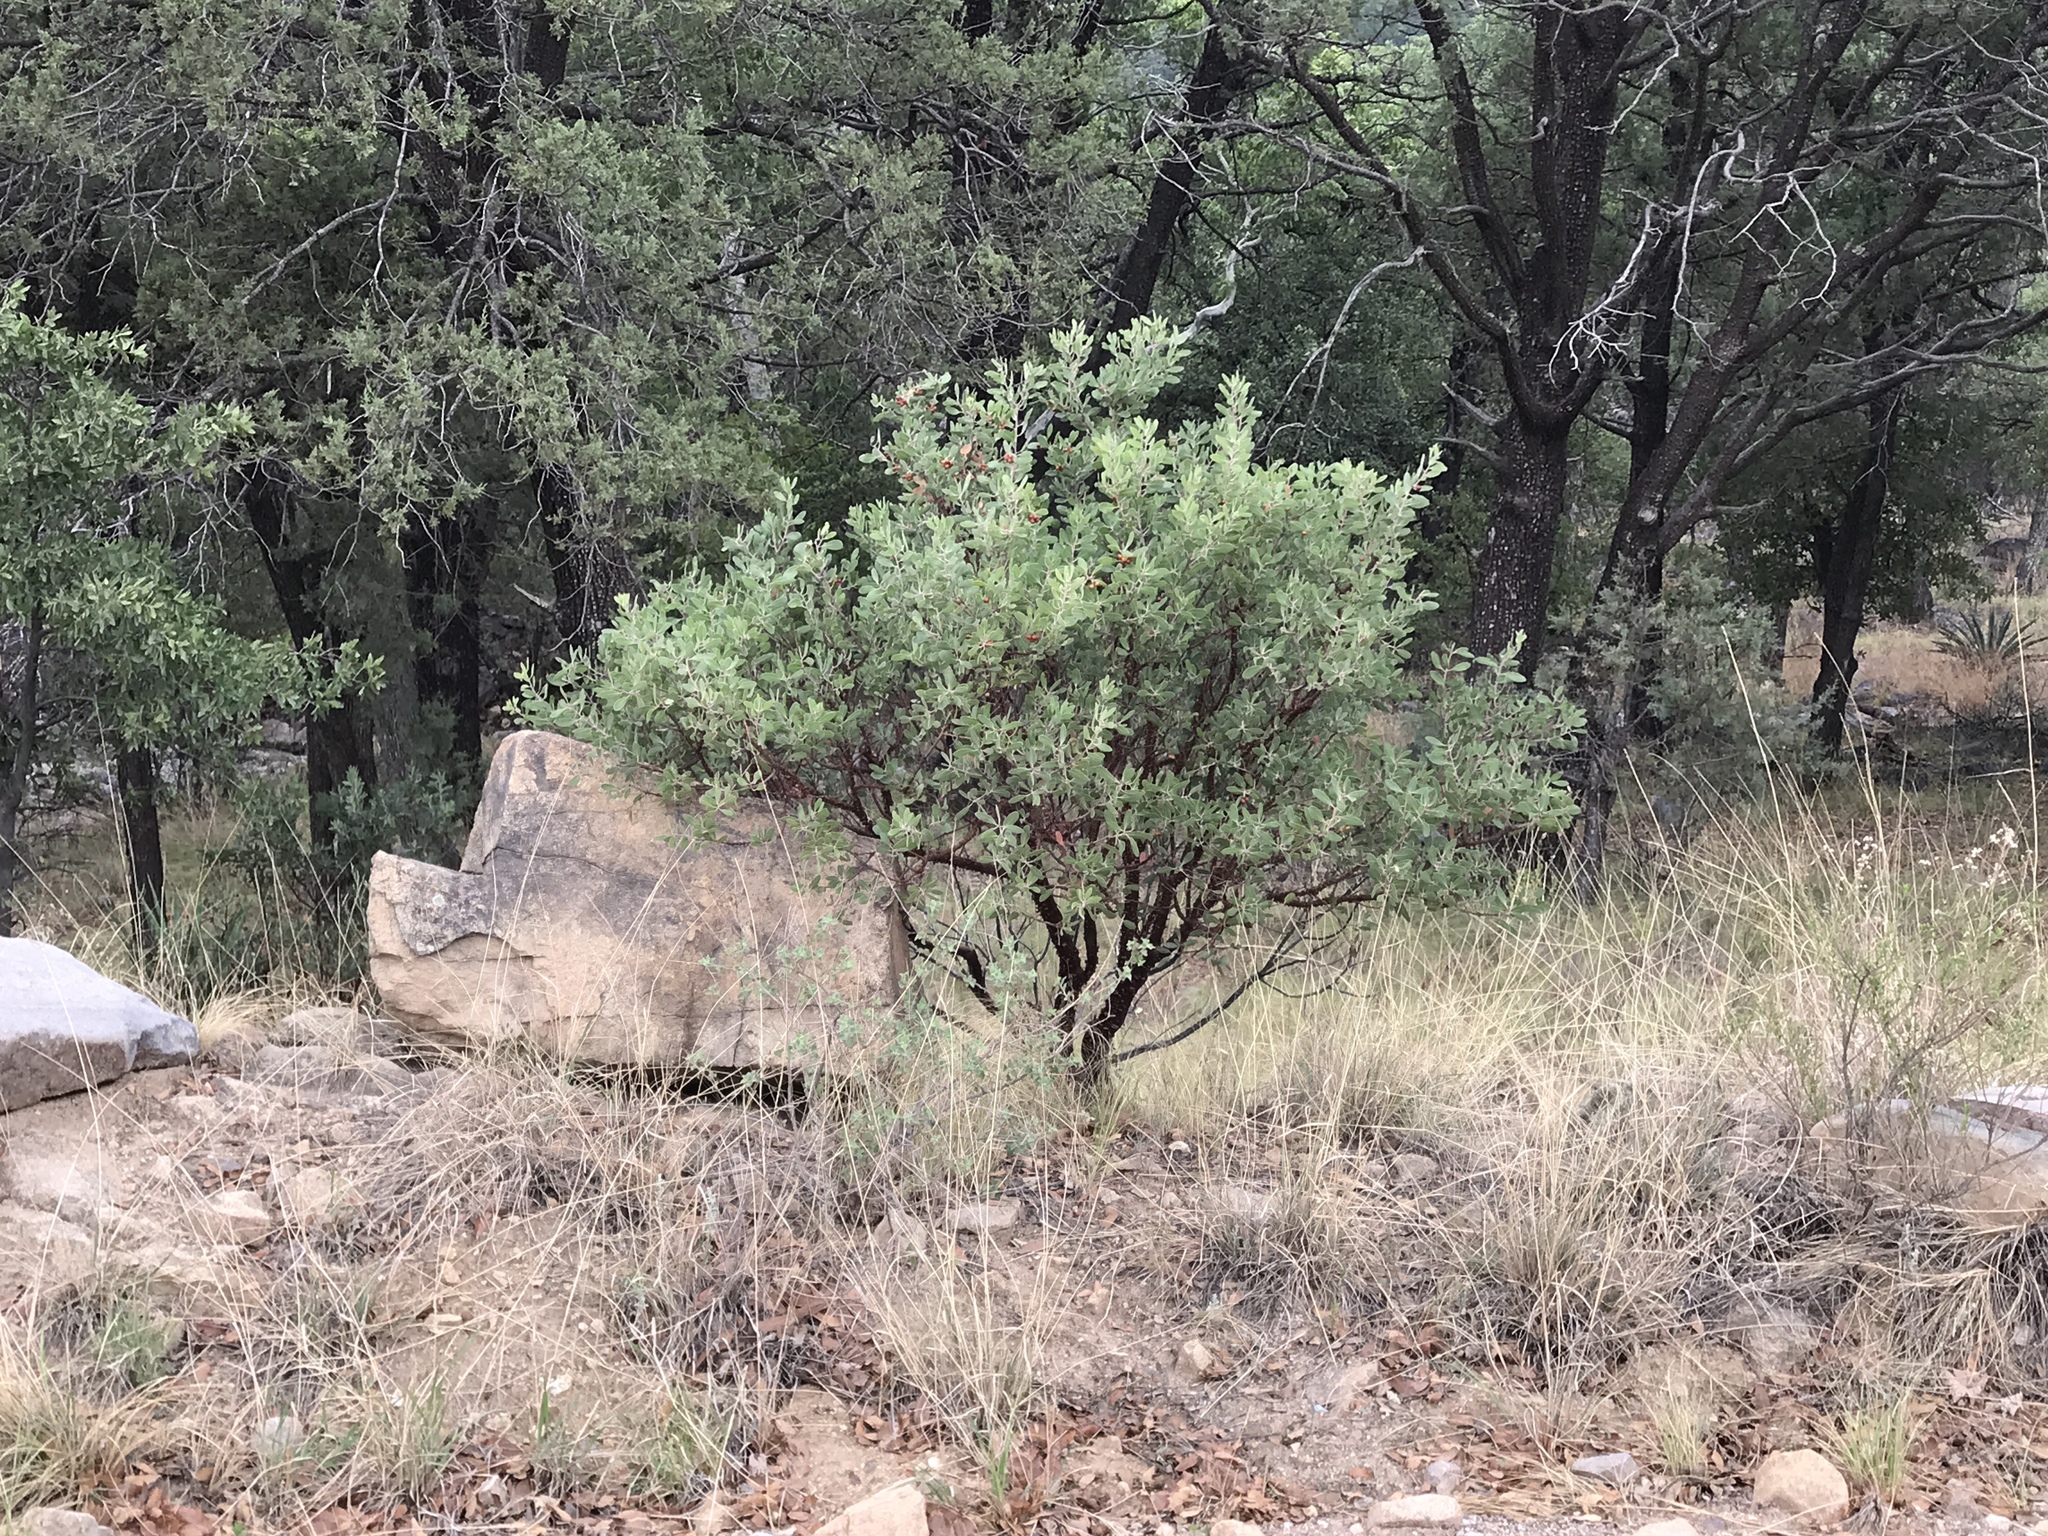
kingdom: Plantae
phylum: Tracheophyta
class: Magnoliopsida
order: Ericales
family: Ericaceae
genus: Arctostaphylos
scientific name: Arctostaphylos pungens
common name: Mexican manzanita
